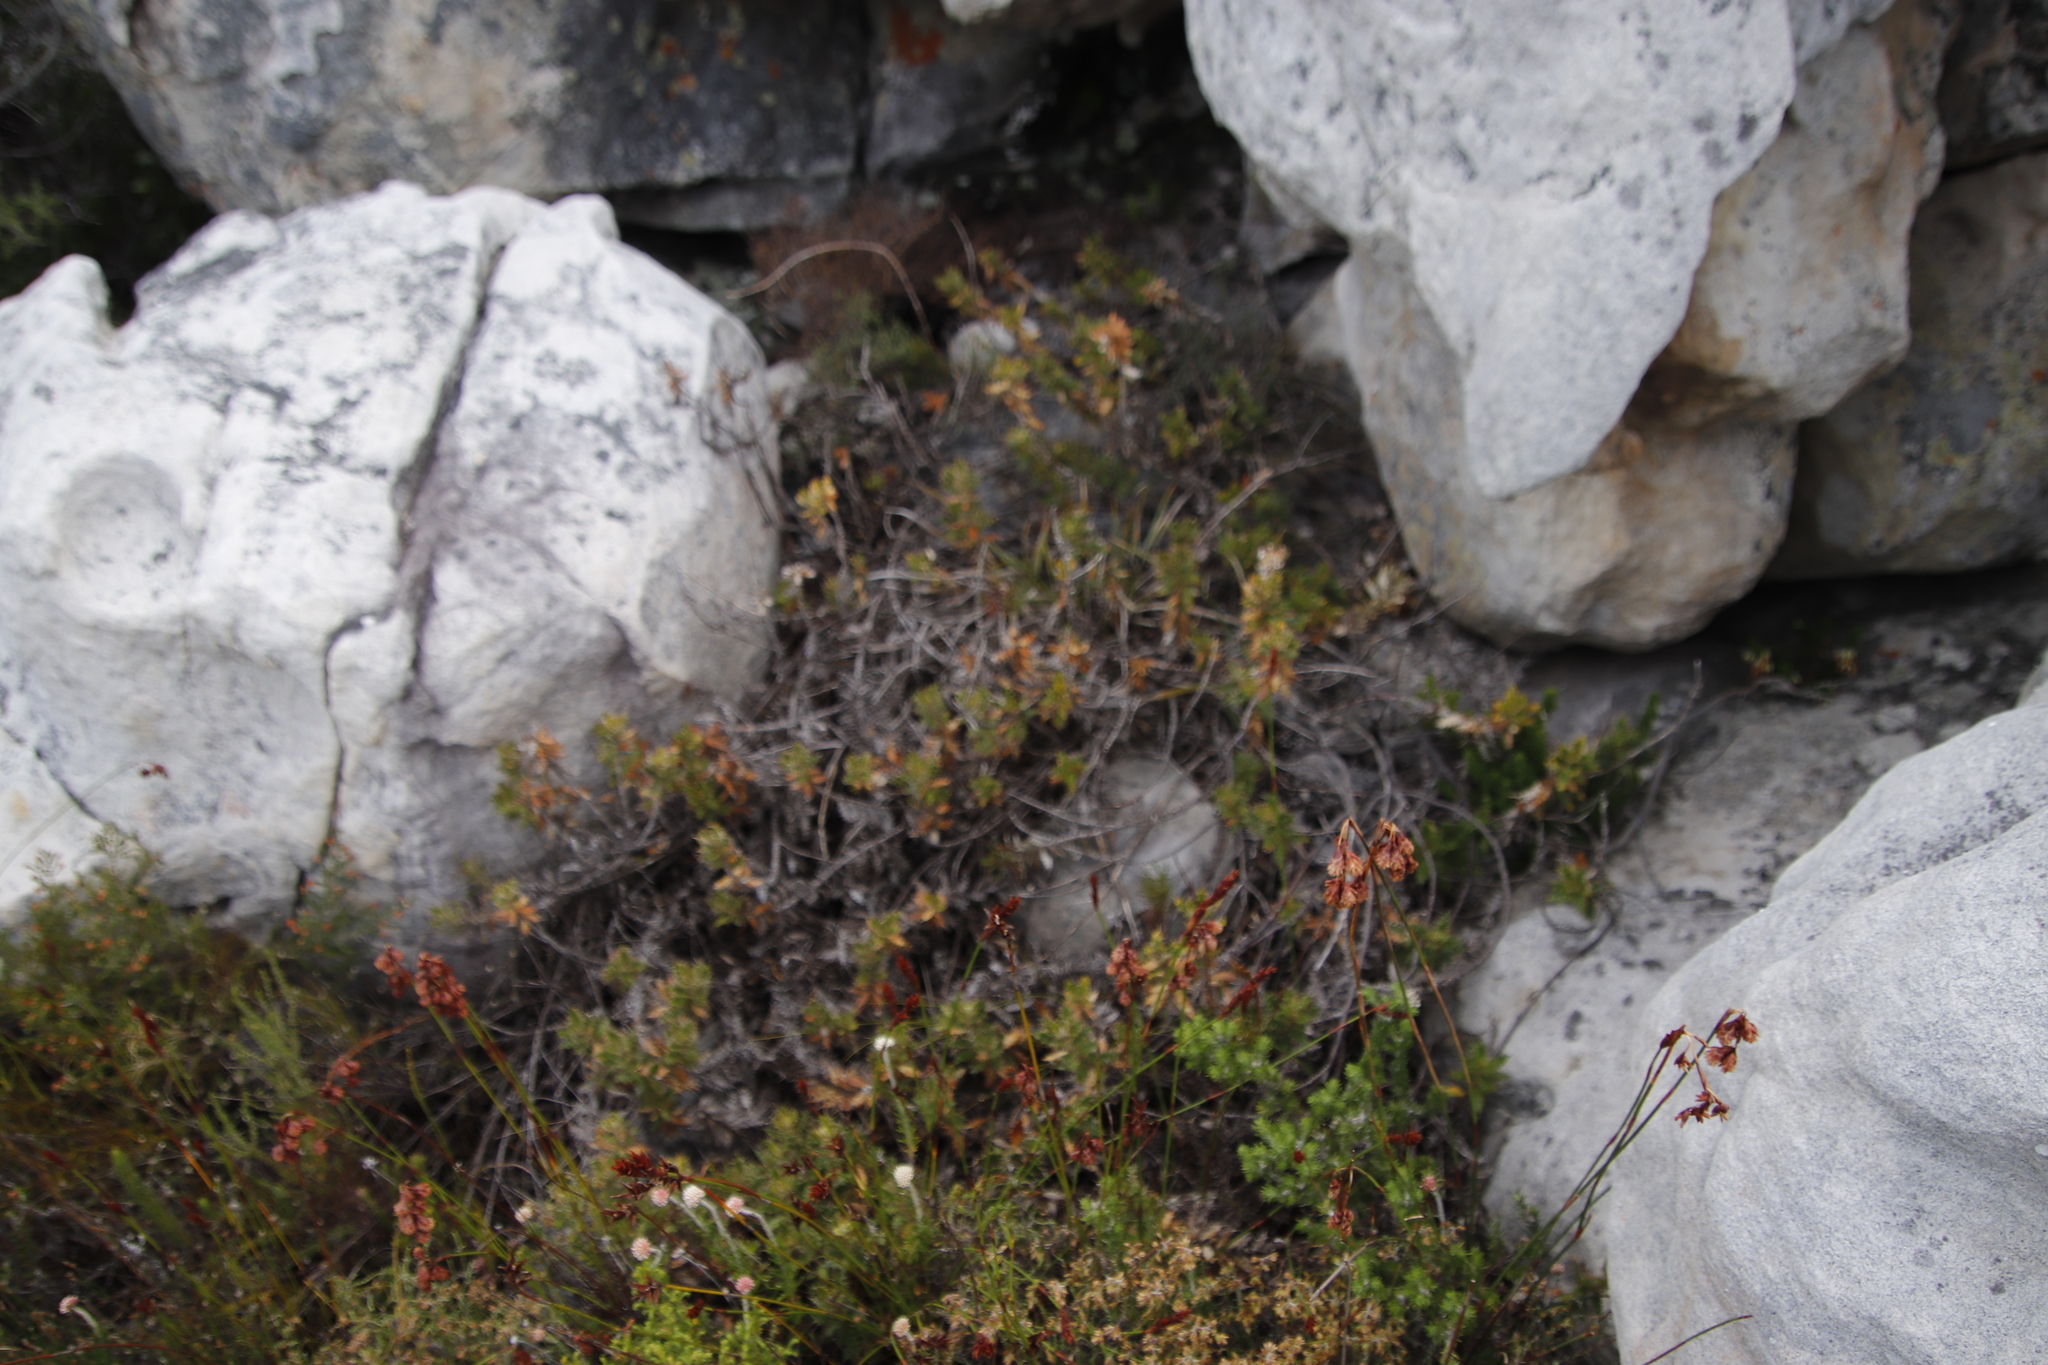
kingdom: Plantae
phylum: Tracheophyta
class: Magnoliopsida
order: Asterales
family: Asteraceae
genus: Berkheya
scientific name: Berkheya barbata
